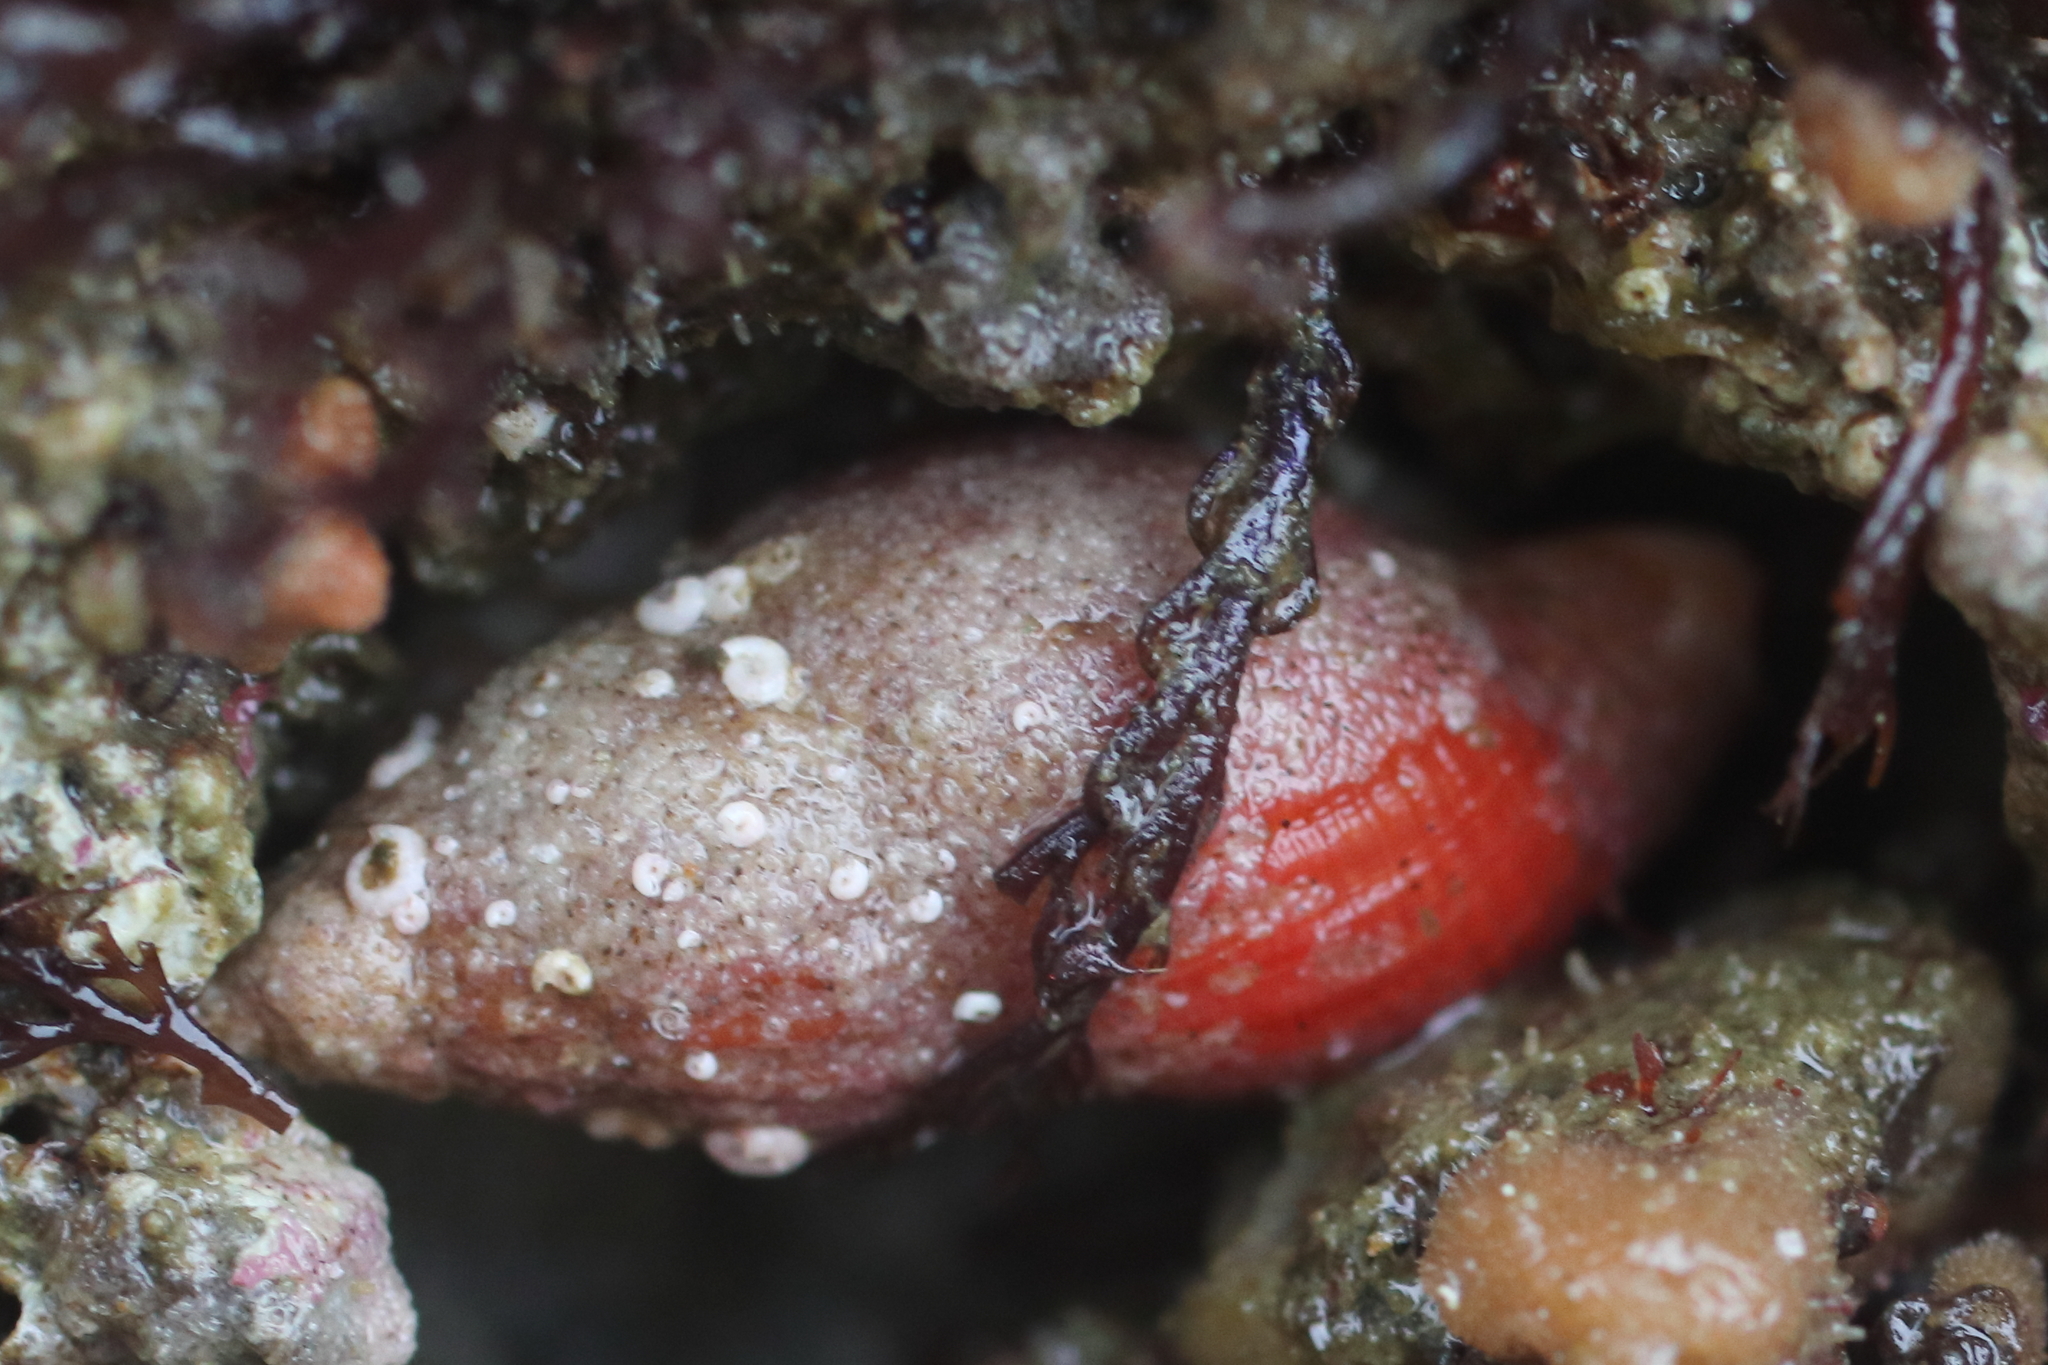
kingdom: Animalia
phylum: Mollusca
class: Gastropoda
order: Neogastropoda
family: Columbellidae
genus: Amphissa
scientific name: Amphissa columbiana
